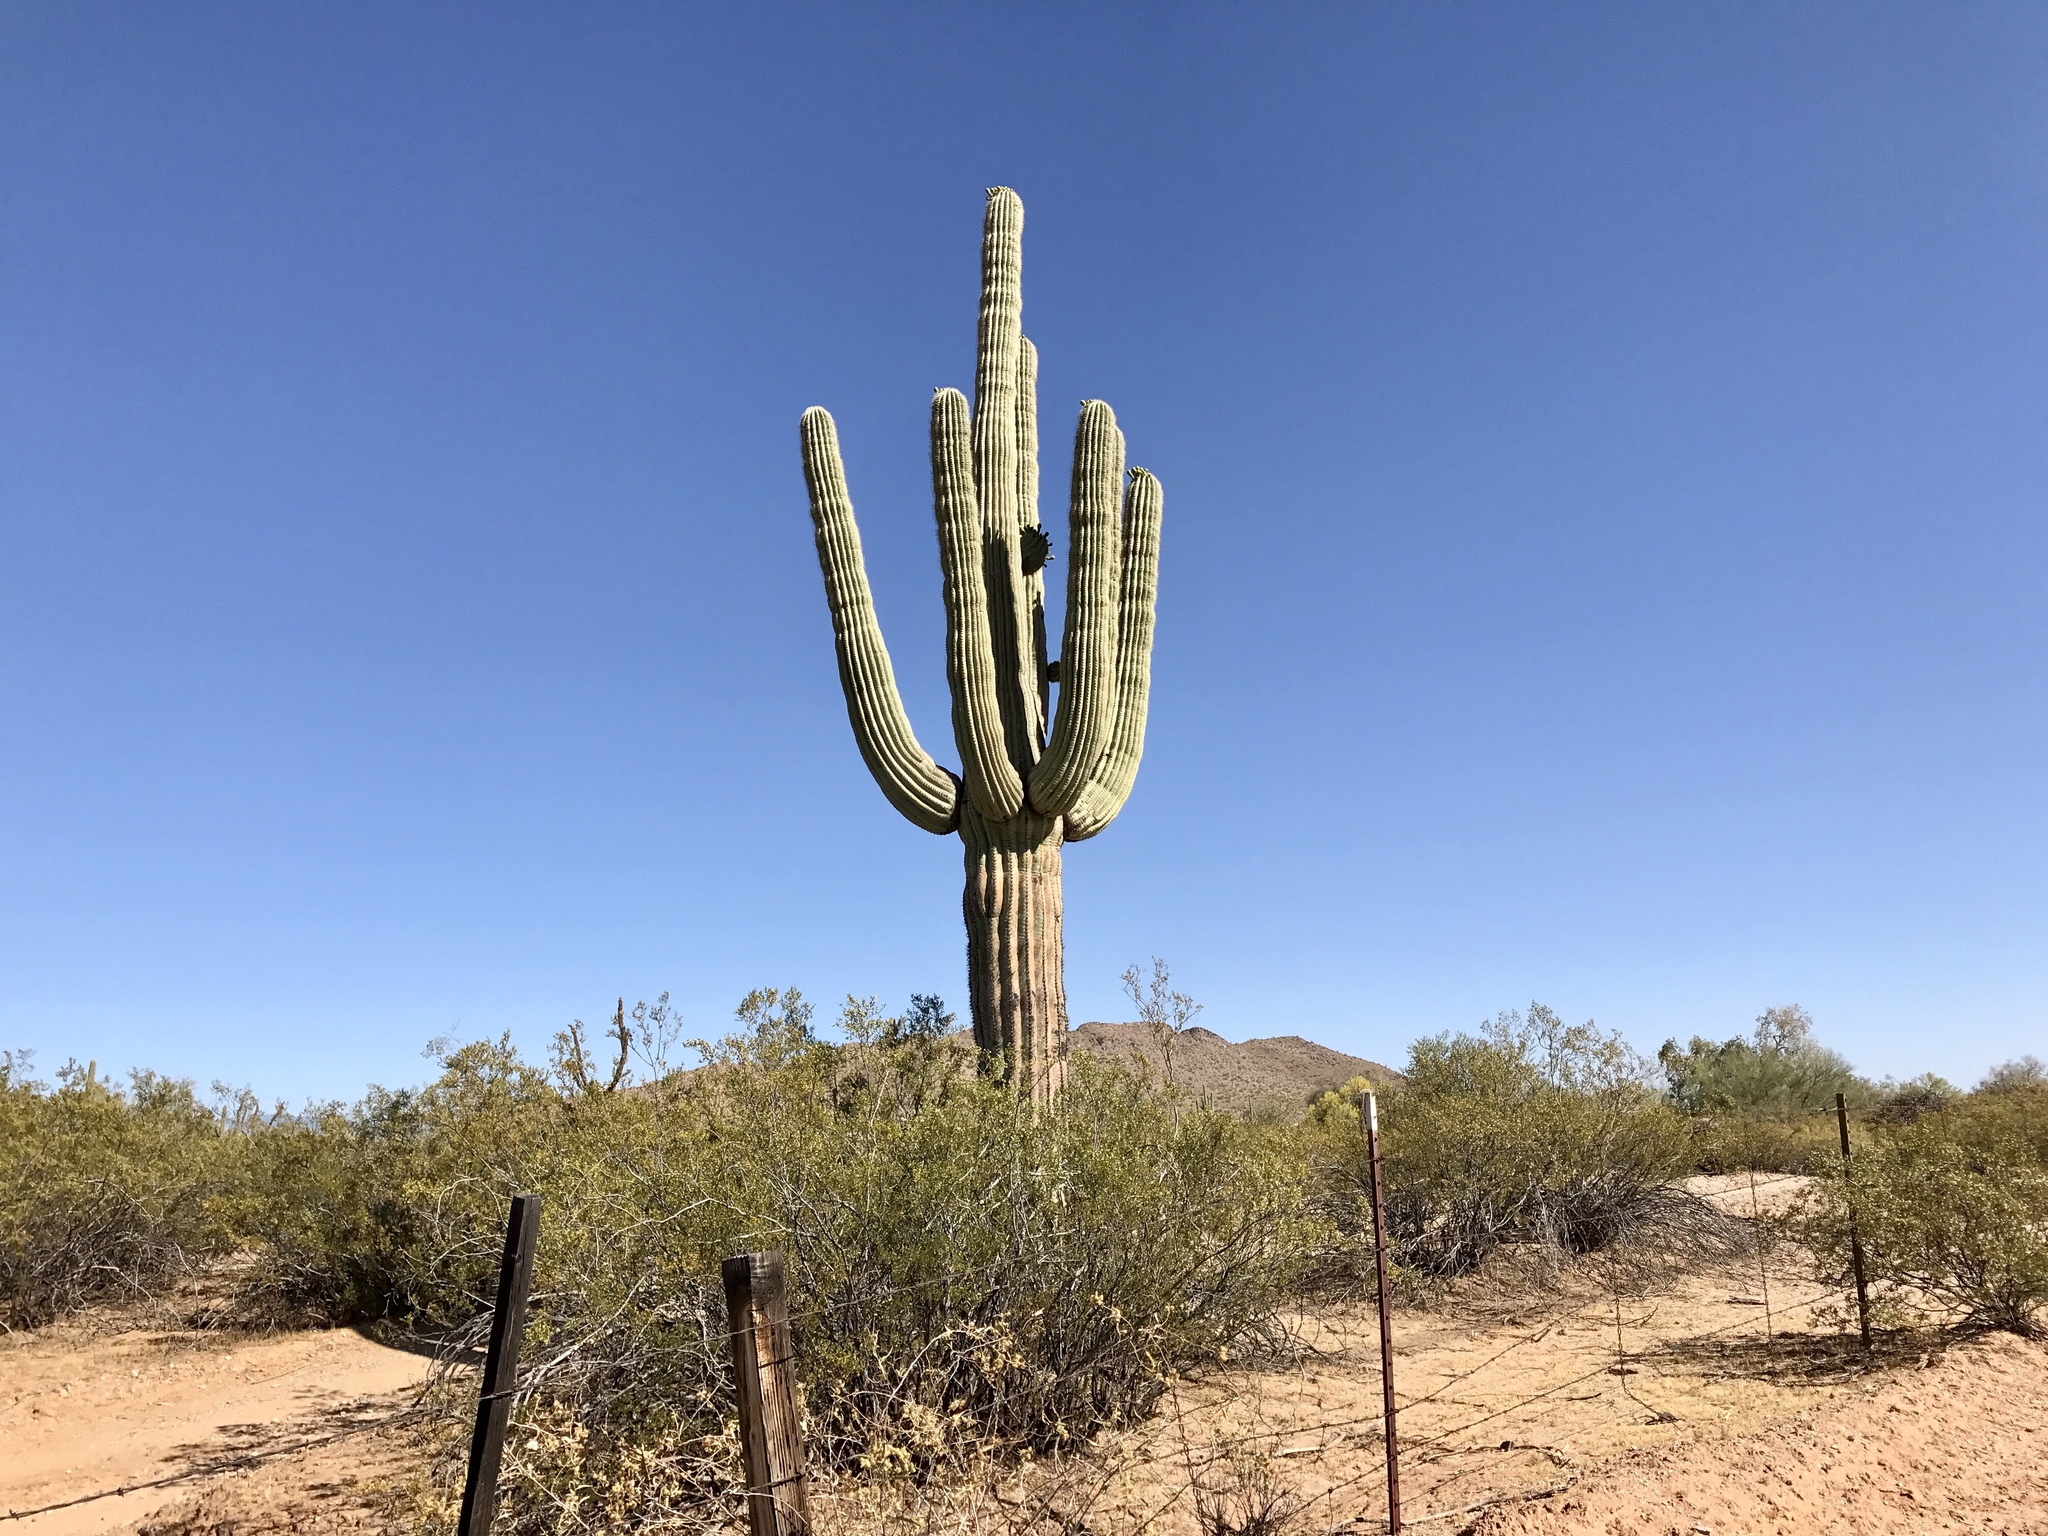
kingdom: Plantae
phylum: Tracheophyta
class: Magnoliopsida
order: Caryophyllales
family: Cactaceae
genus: Carnegiea
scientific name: Carnegiea gigantea
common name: Saguaro
